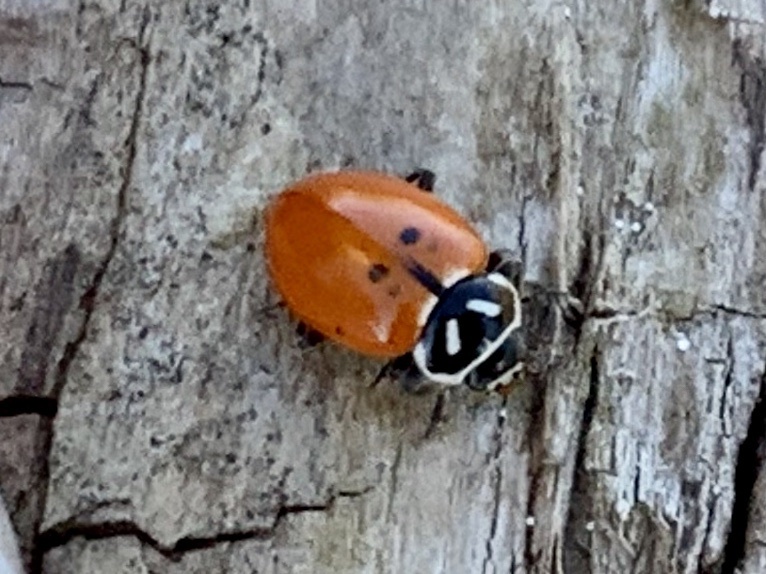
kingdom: Animalia
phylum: Arthropoda
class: Insecta
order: Coleoptera
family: Coccinellidae
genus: Hippodamia
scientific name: Hippodamia convergens
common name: Convergent lady beetle
